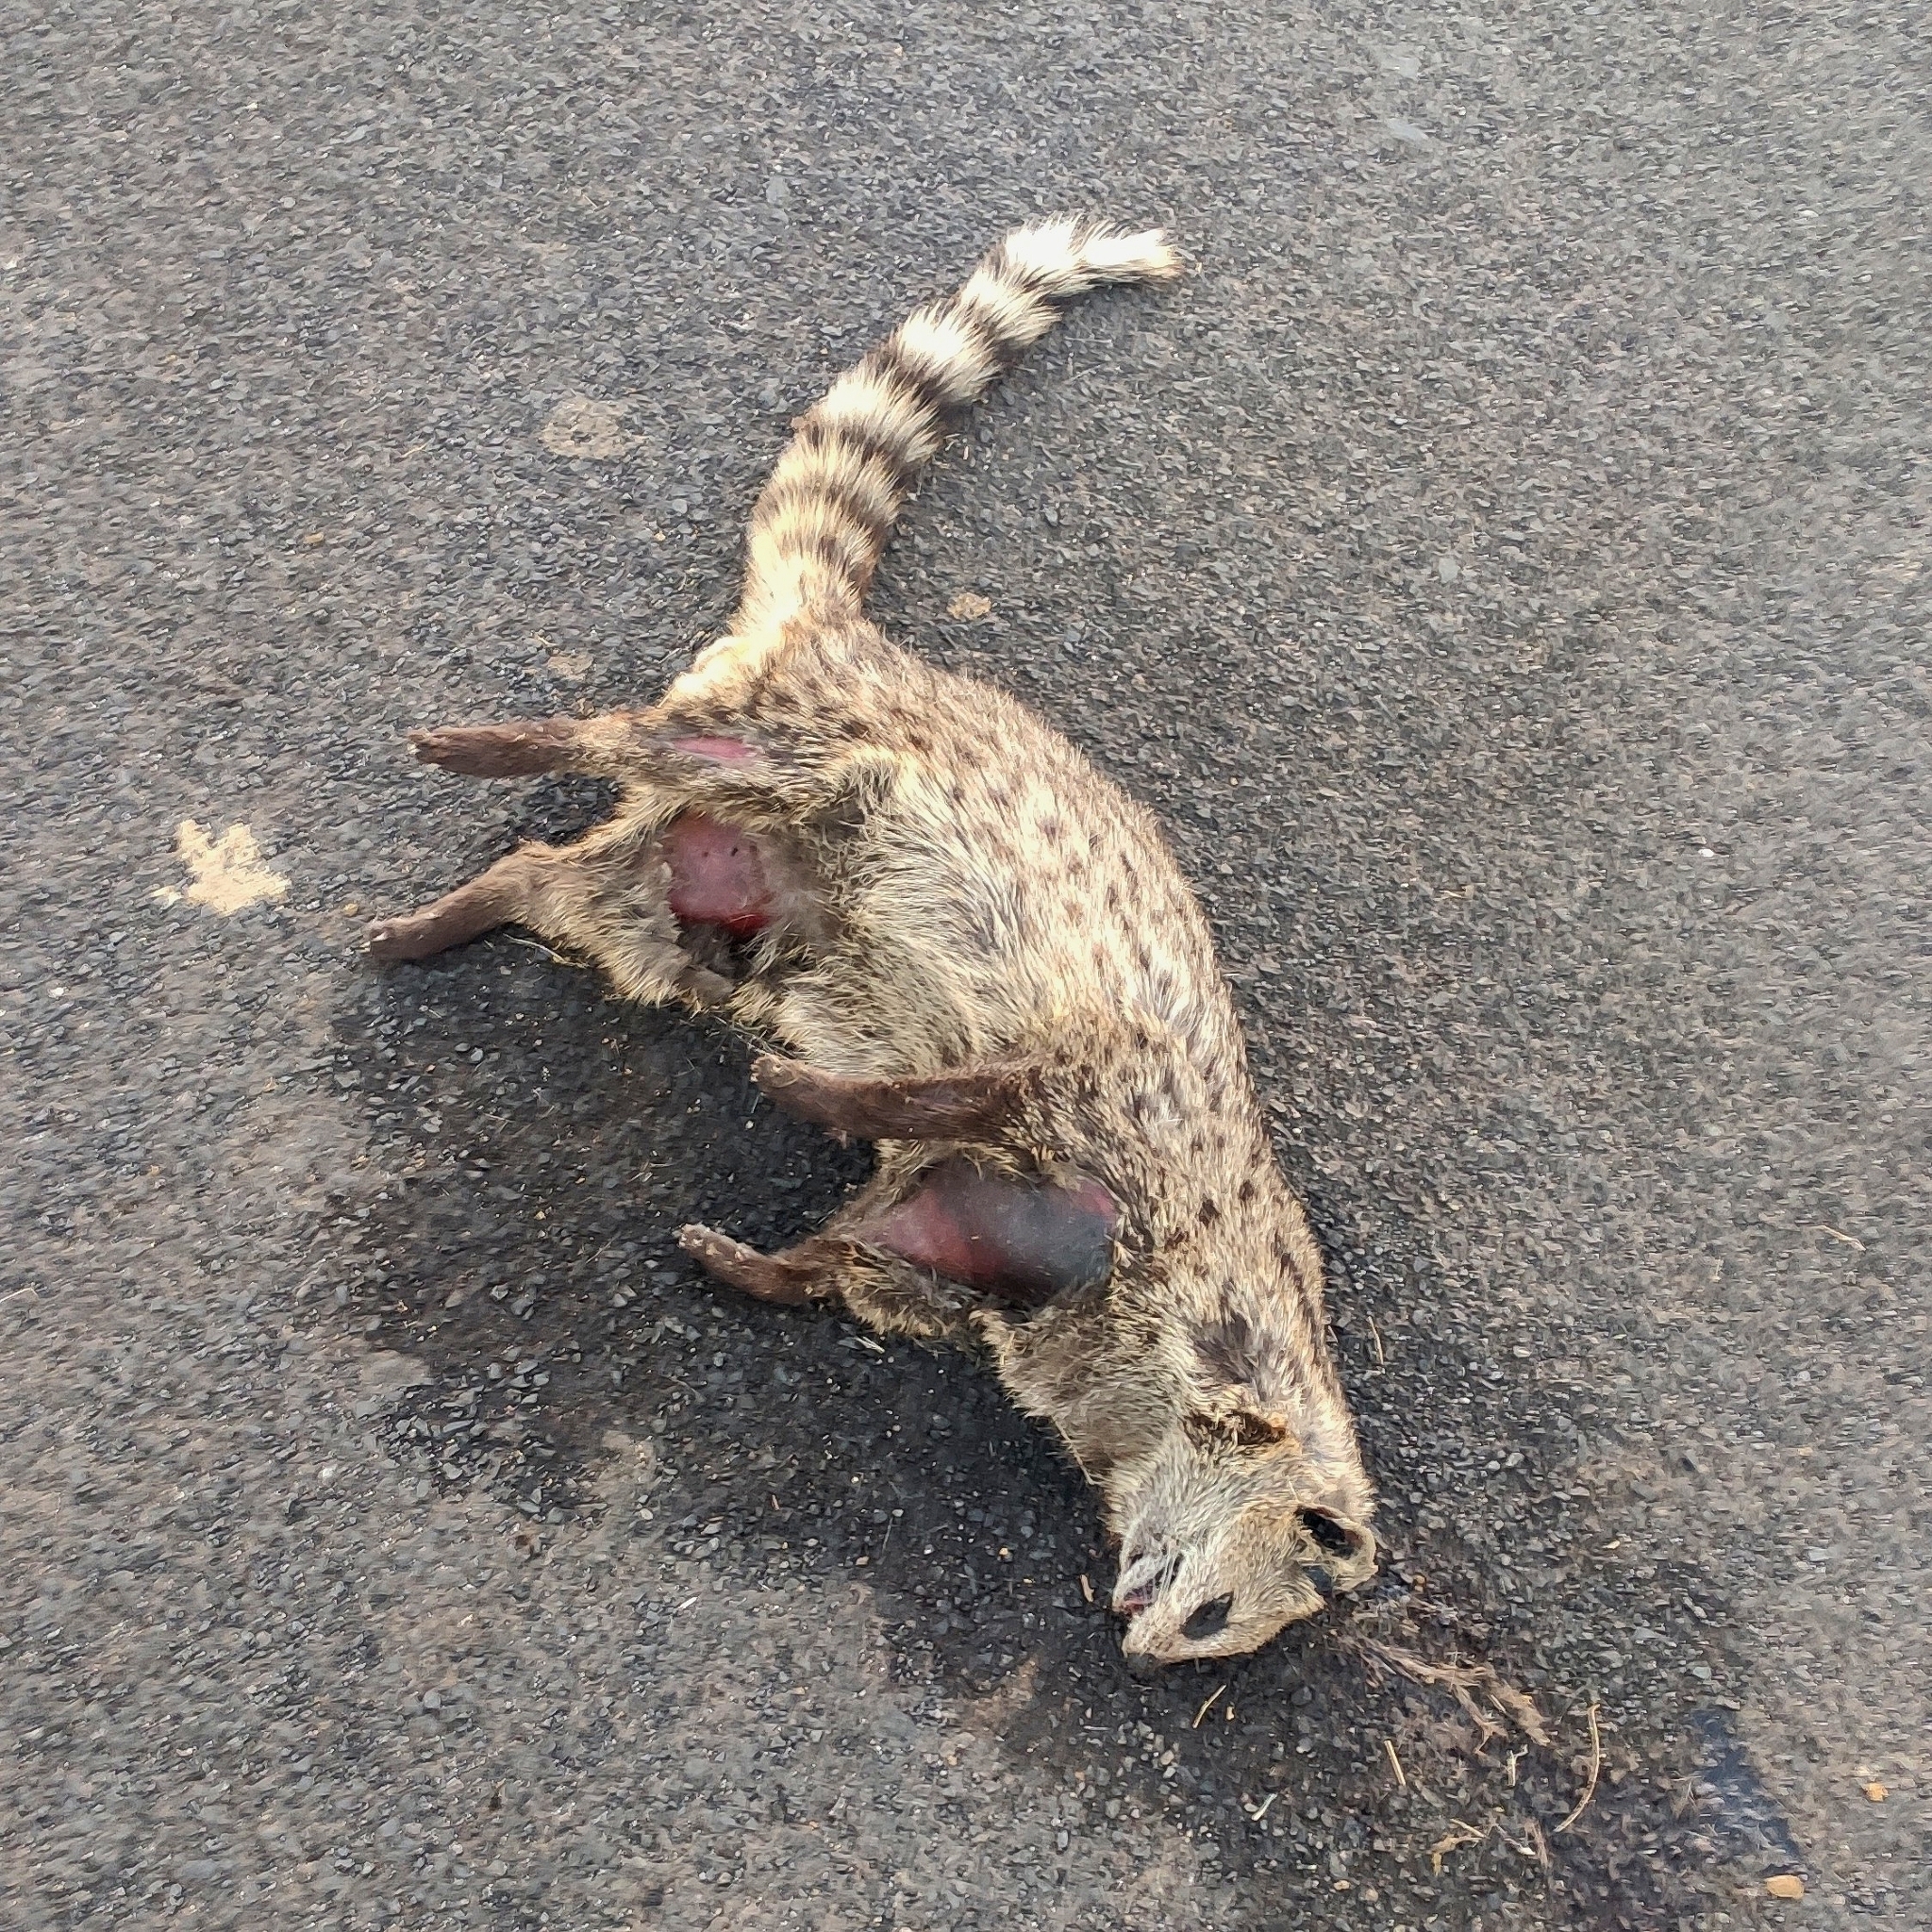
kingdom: Animalia
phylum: Chordata
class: Mammalia
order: Carnivora
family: Viverridae
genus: Viverricula
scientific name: Viverricula indica
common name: Small indian civet
